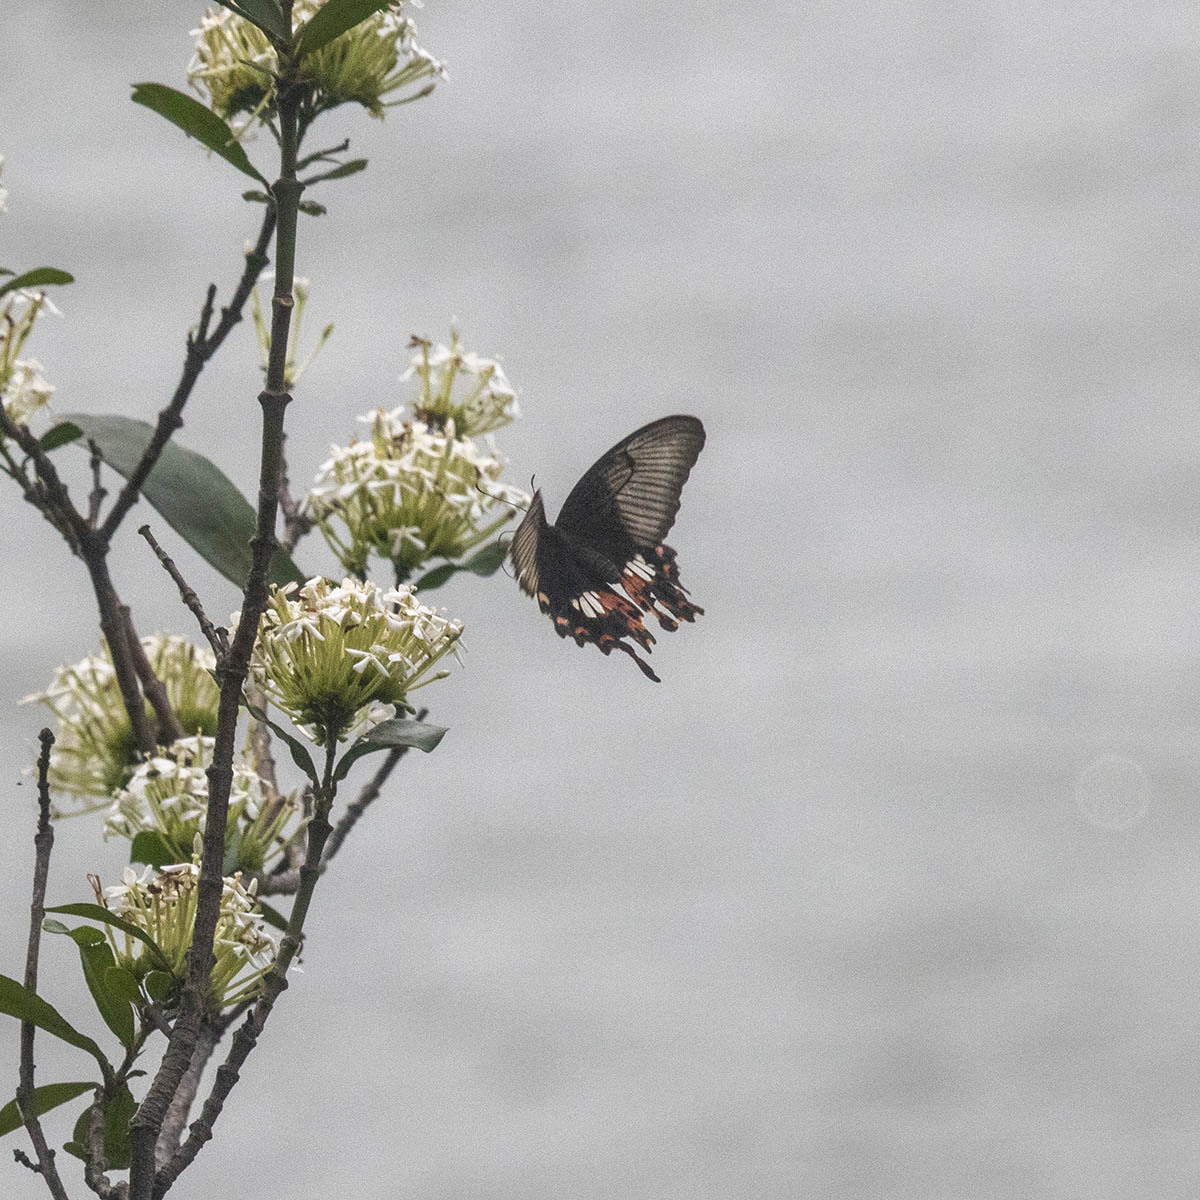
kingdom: Animalia
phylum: Arthropoda
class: Insecta
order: Lepidoptera
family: Papilionidae
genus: Papilio
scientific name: Papilio polytes
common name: Common mormon
